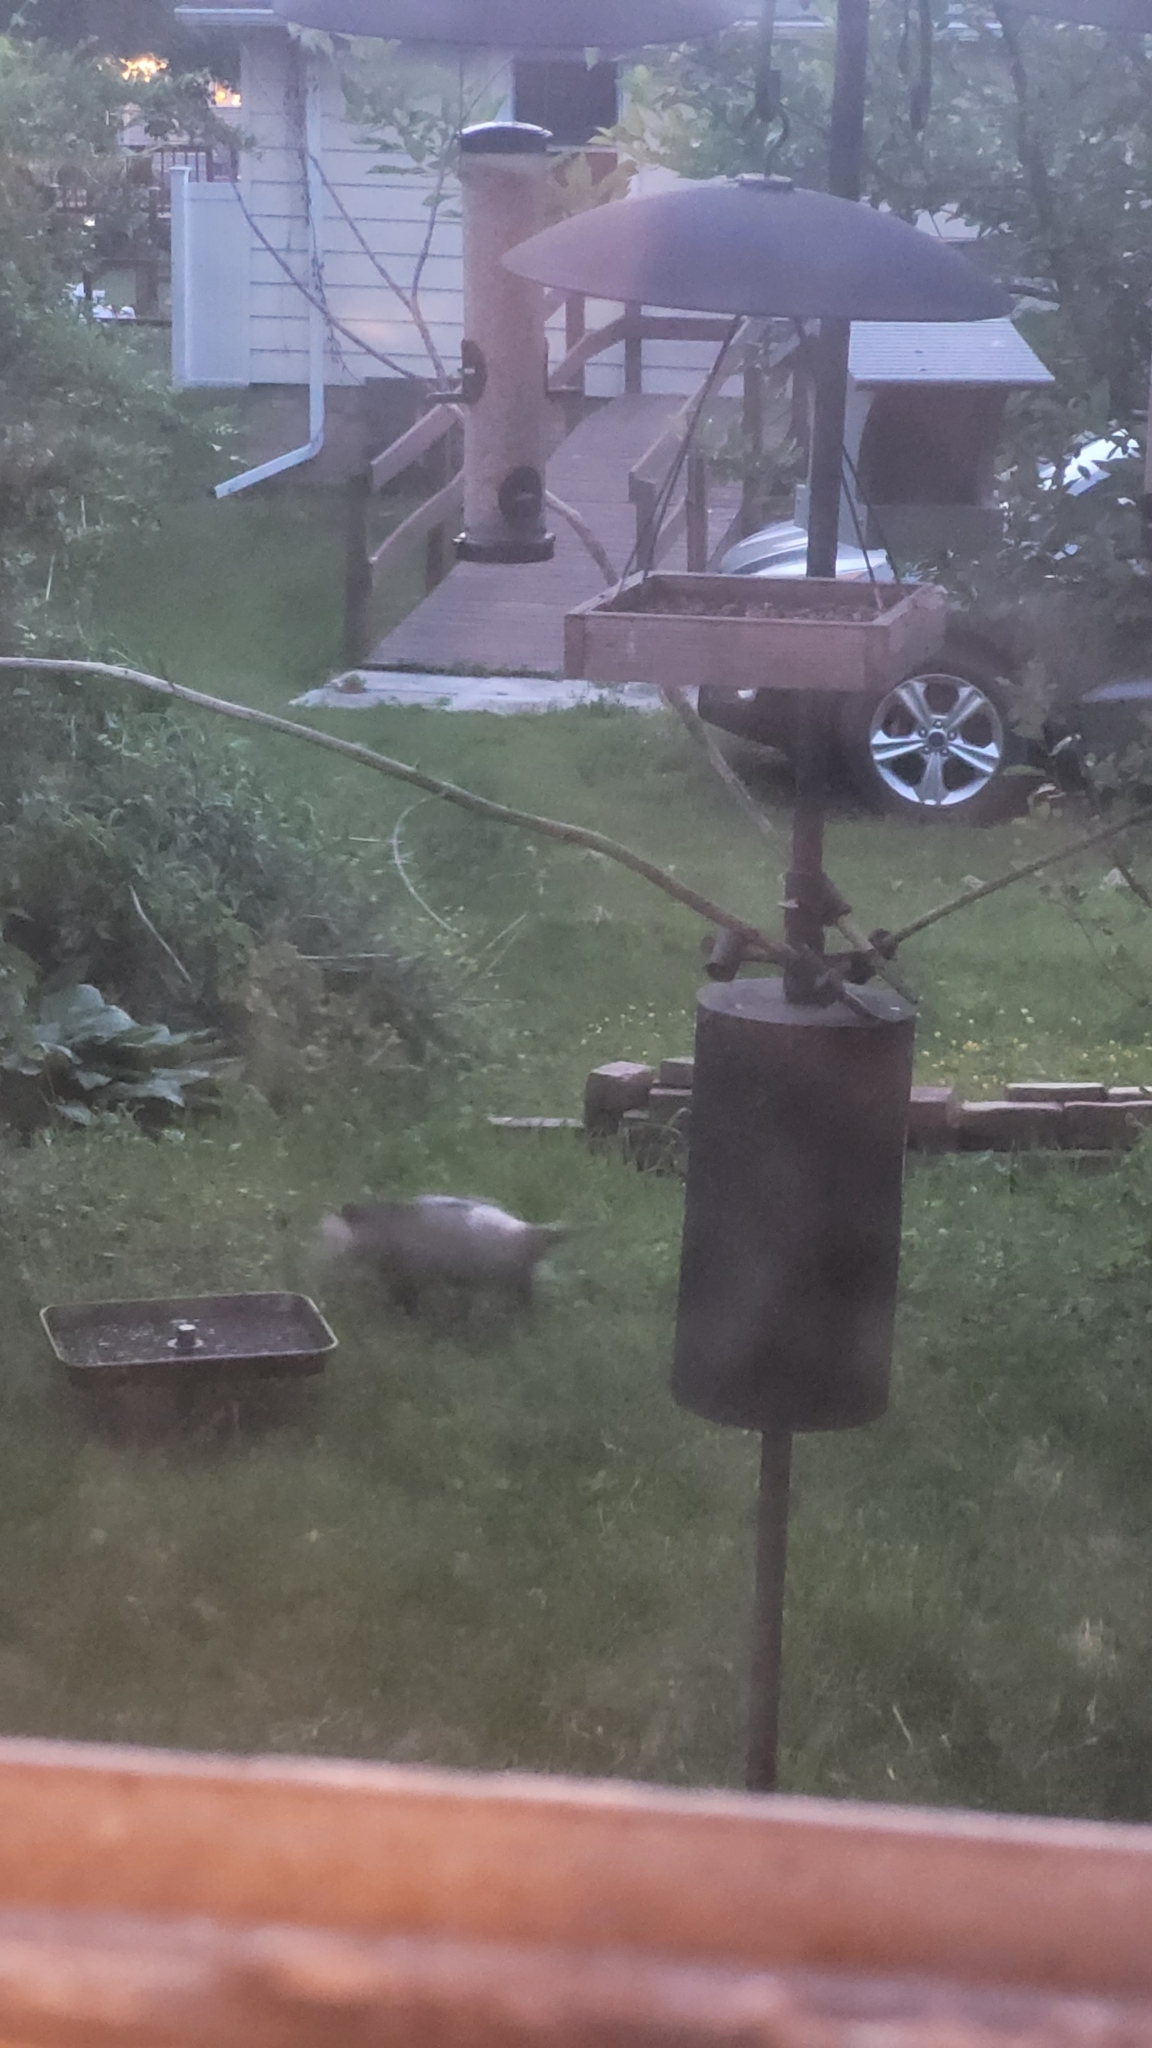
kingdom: Animalia
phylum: Chordata
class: Mammalia
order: Didelphimorphia
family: Didelphidae
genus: Didelphis
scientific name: Didelphis virginiana
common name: Virginia opossum
